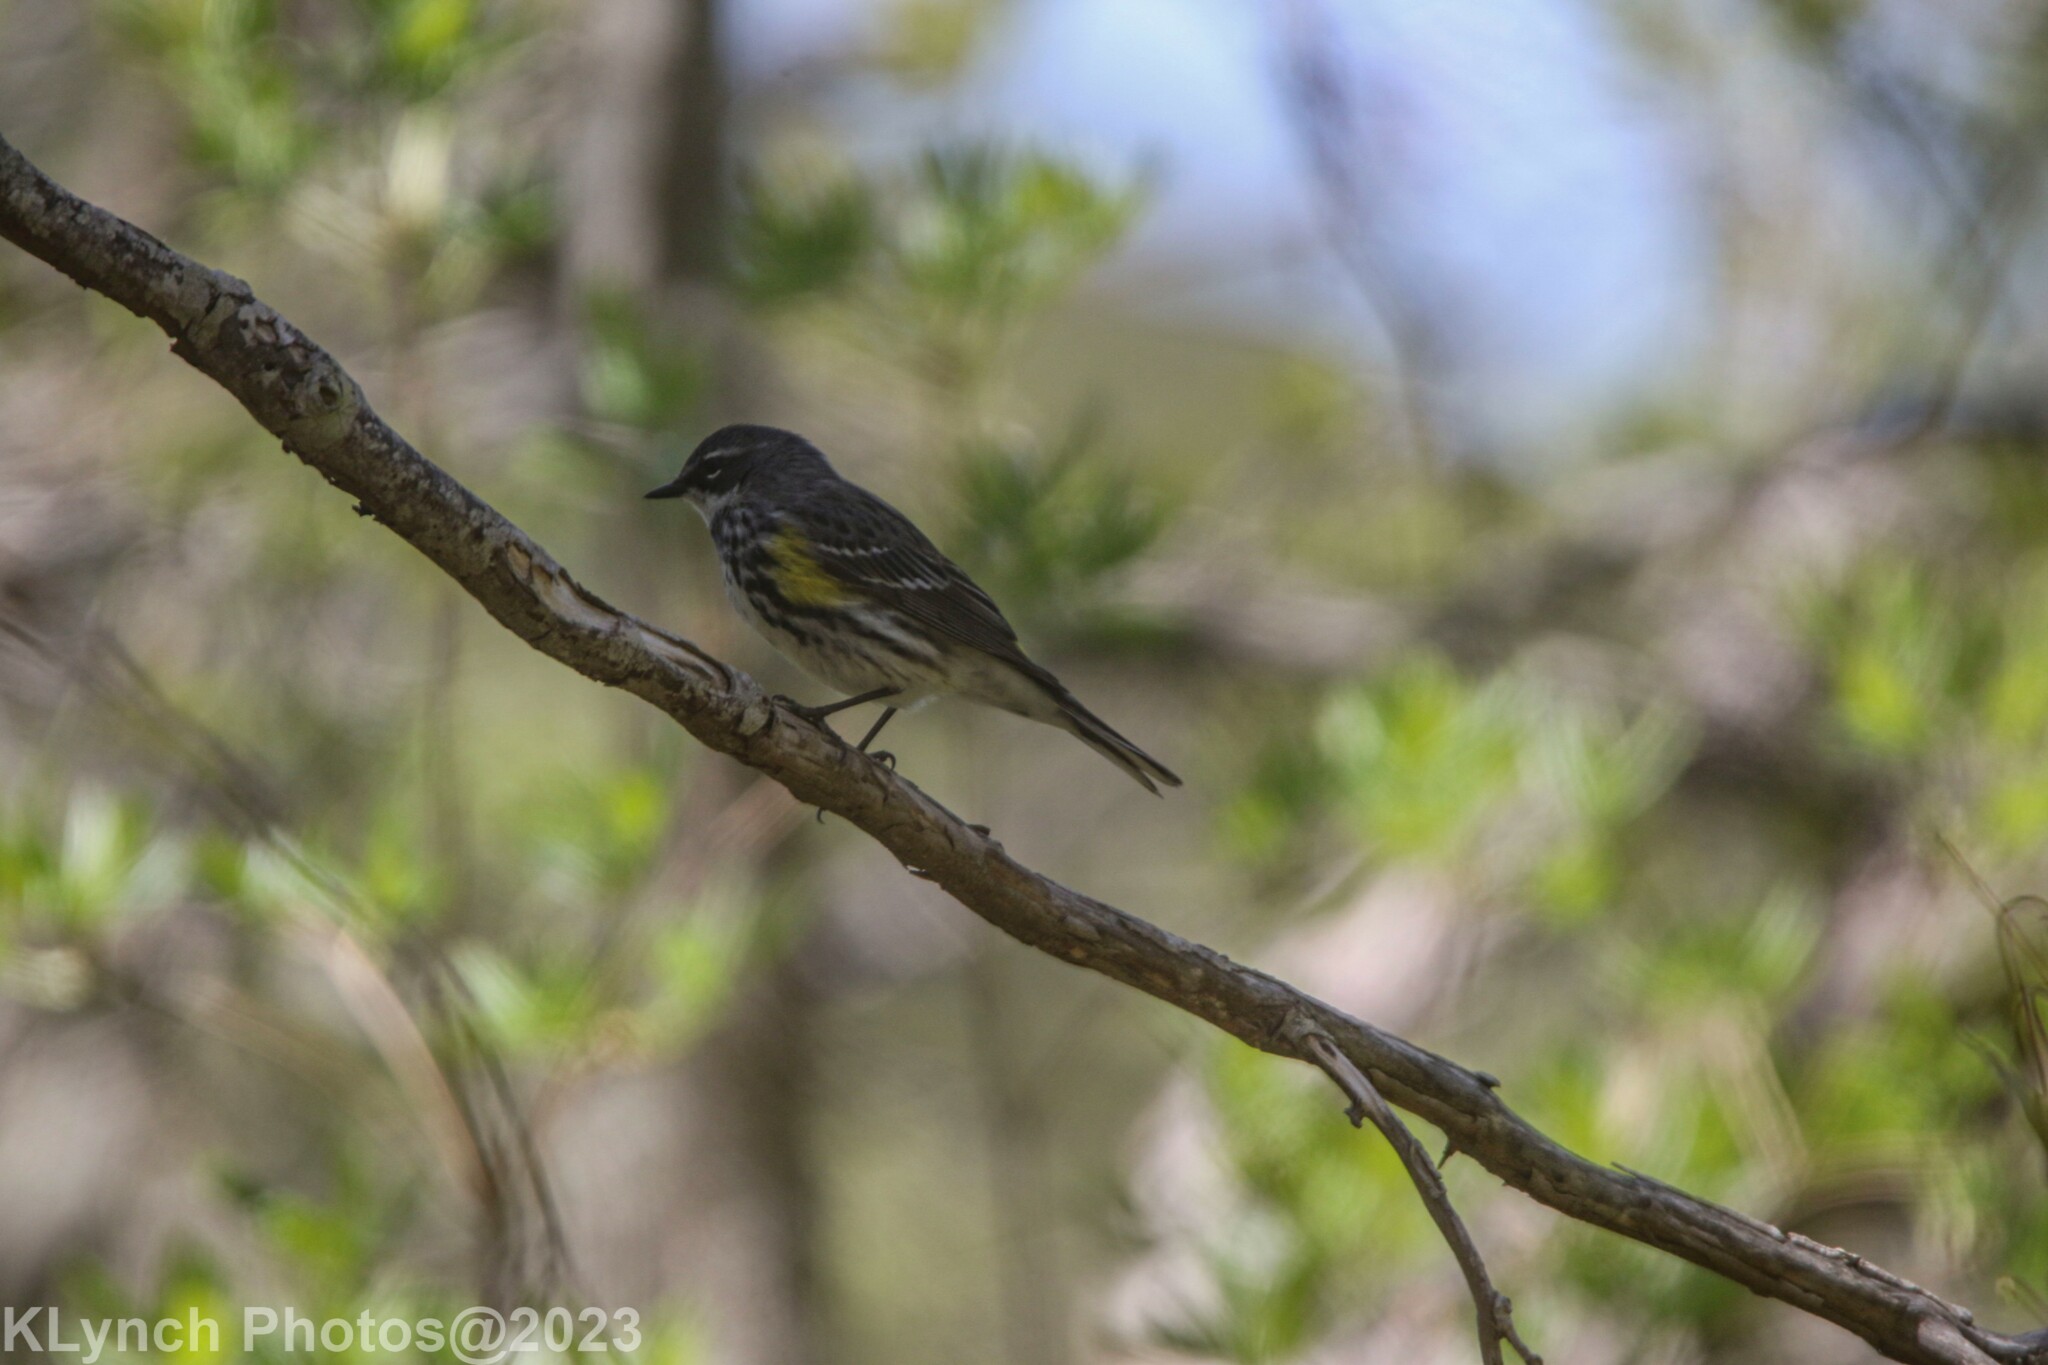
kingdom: Animalia
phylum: Chordata
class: Aves
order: Passeriformes
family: Parulidae
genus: Setophaga
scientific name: Setophaga coronata
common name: Myrtle warbler
